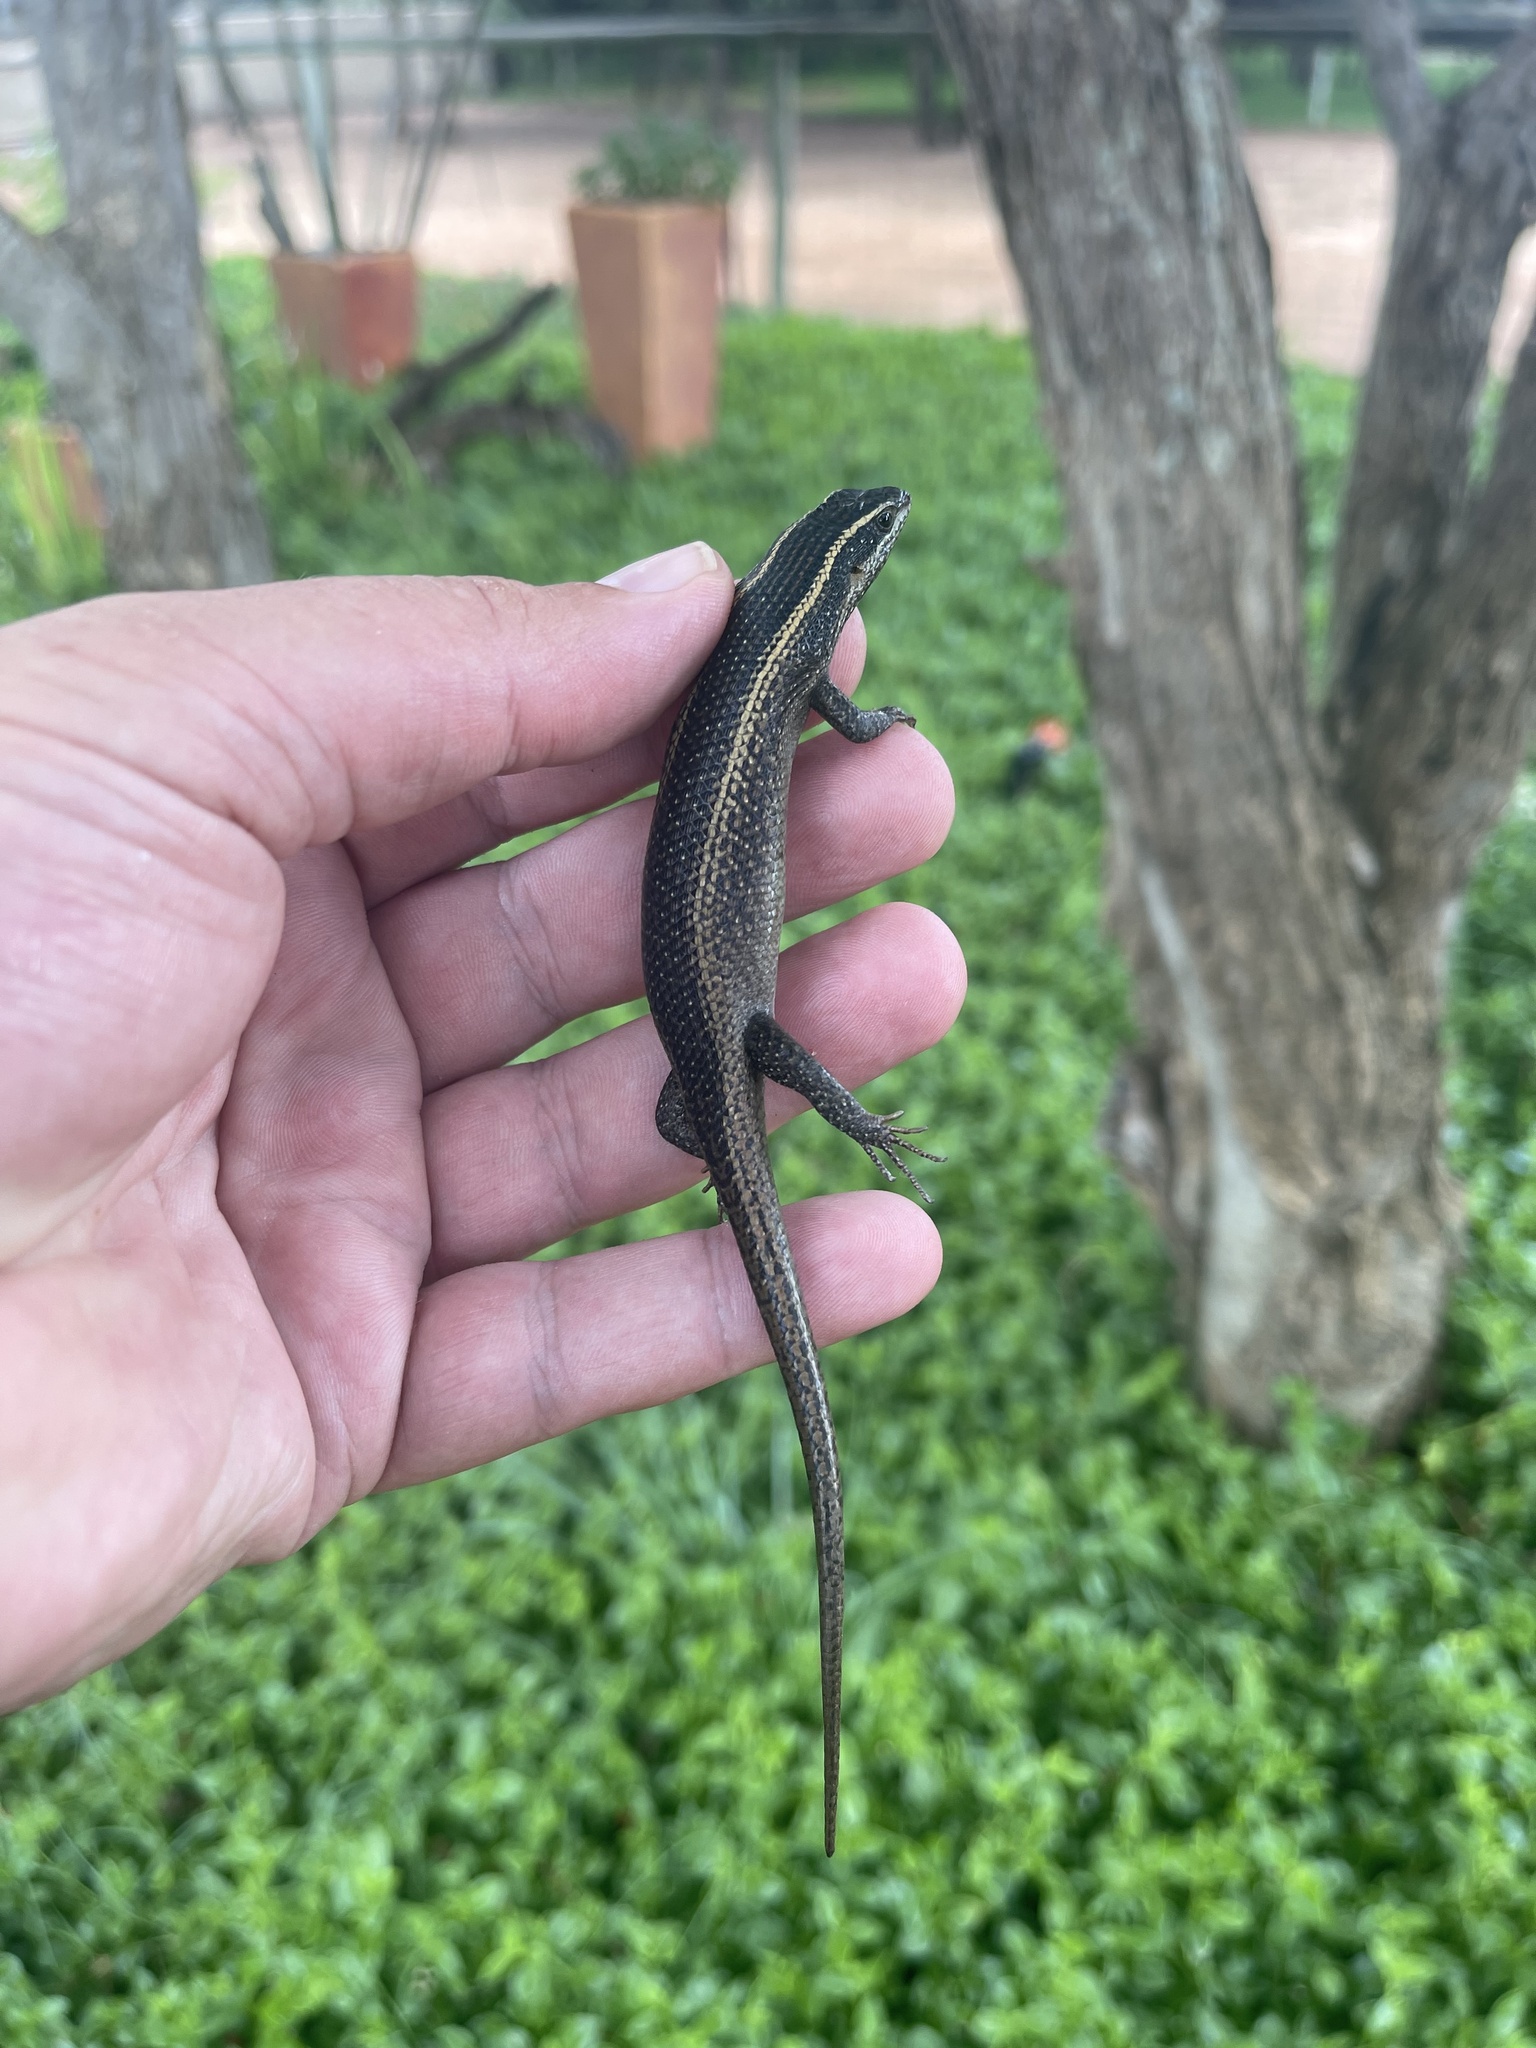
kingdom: Animalia
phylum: Chordata
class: Squamata
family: Scincidae
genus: Trachylepis
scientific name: Trachylepis punctatissima
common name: Montane speckled skink
